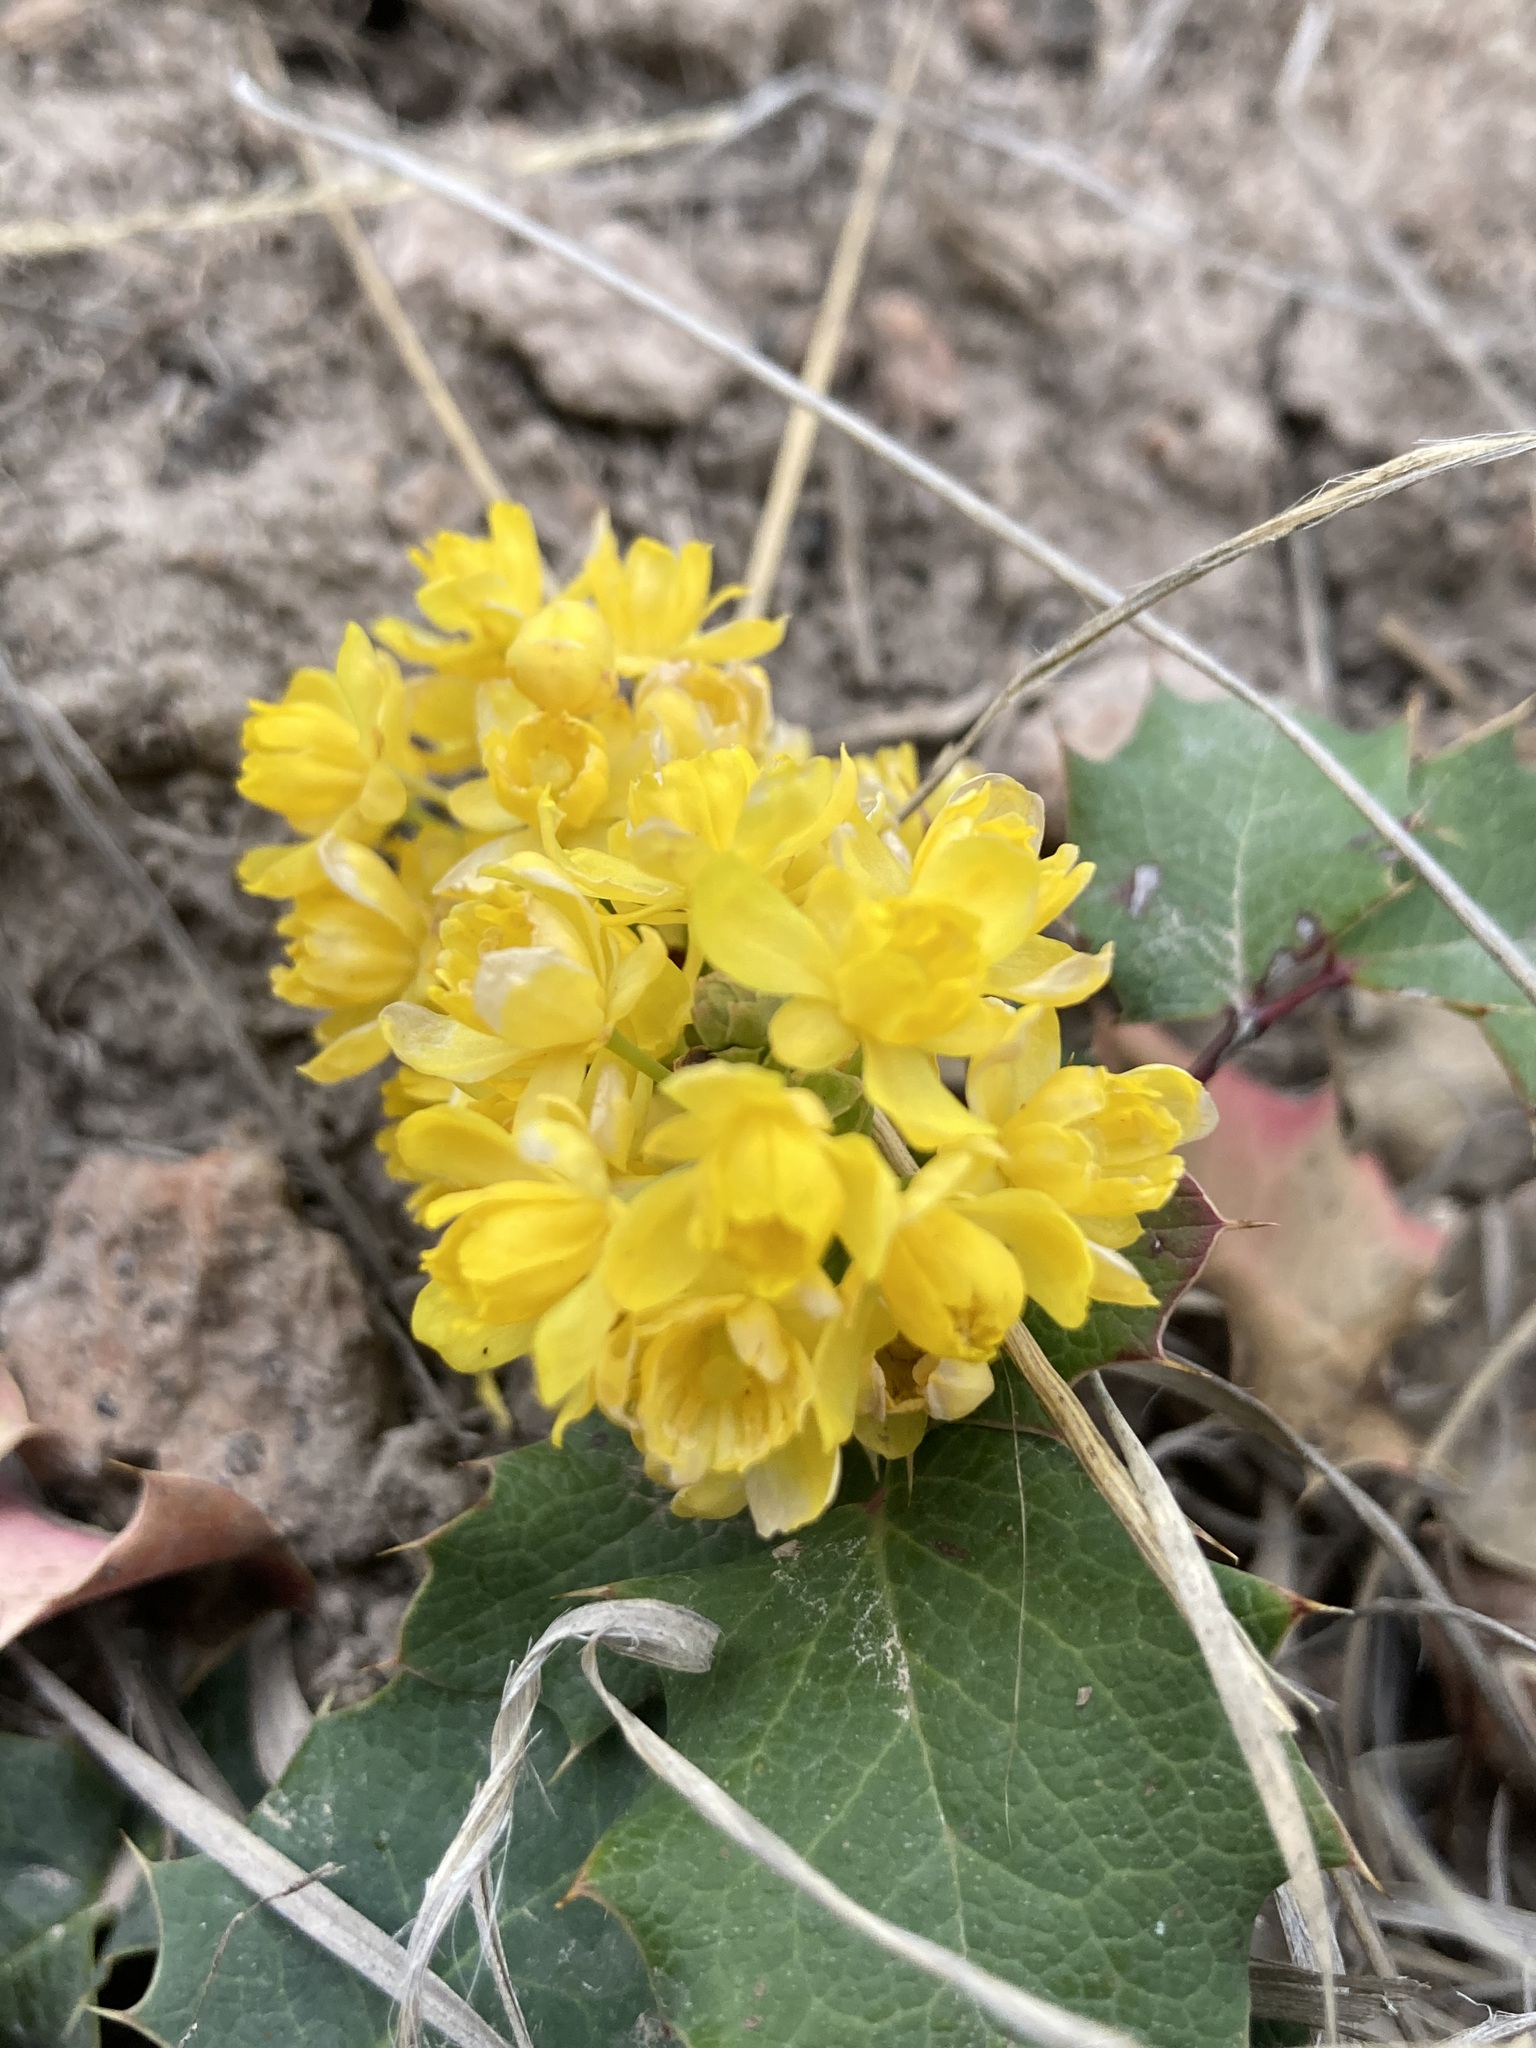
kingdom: Plantae
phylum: Tracheophyta
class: Magnoliopsida
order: Ranunculales
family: Berberidaceae
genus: Mahonia
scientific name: Mahonia repens
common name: Creeping oregon-grape
